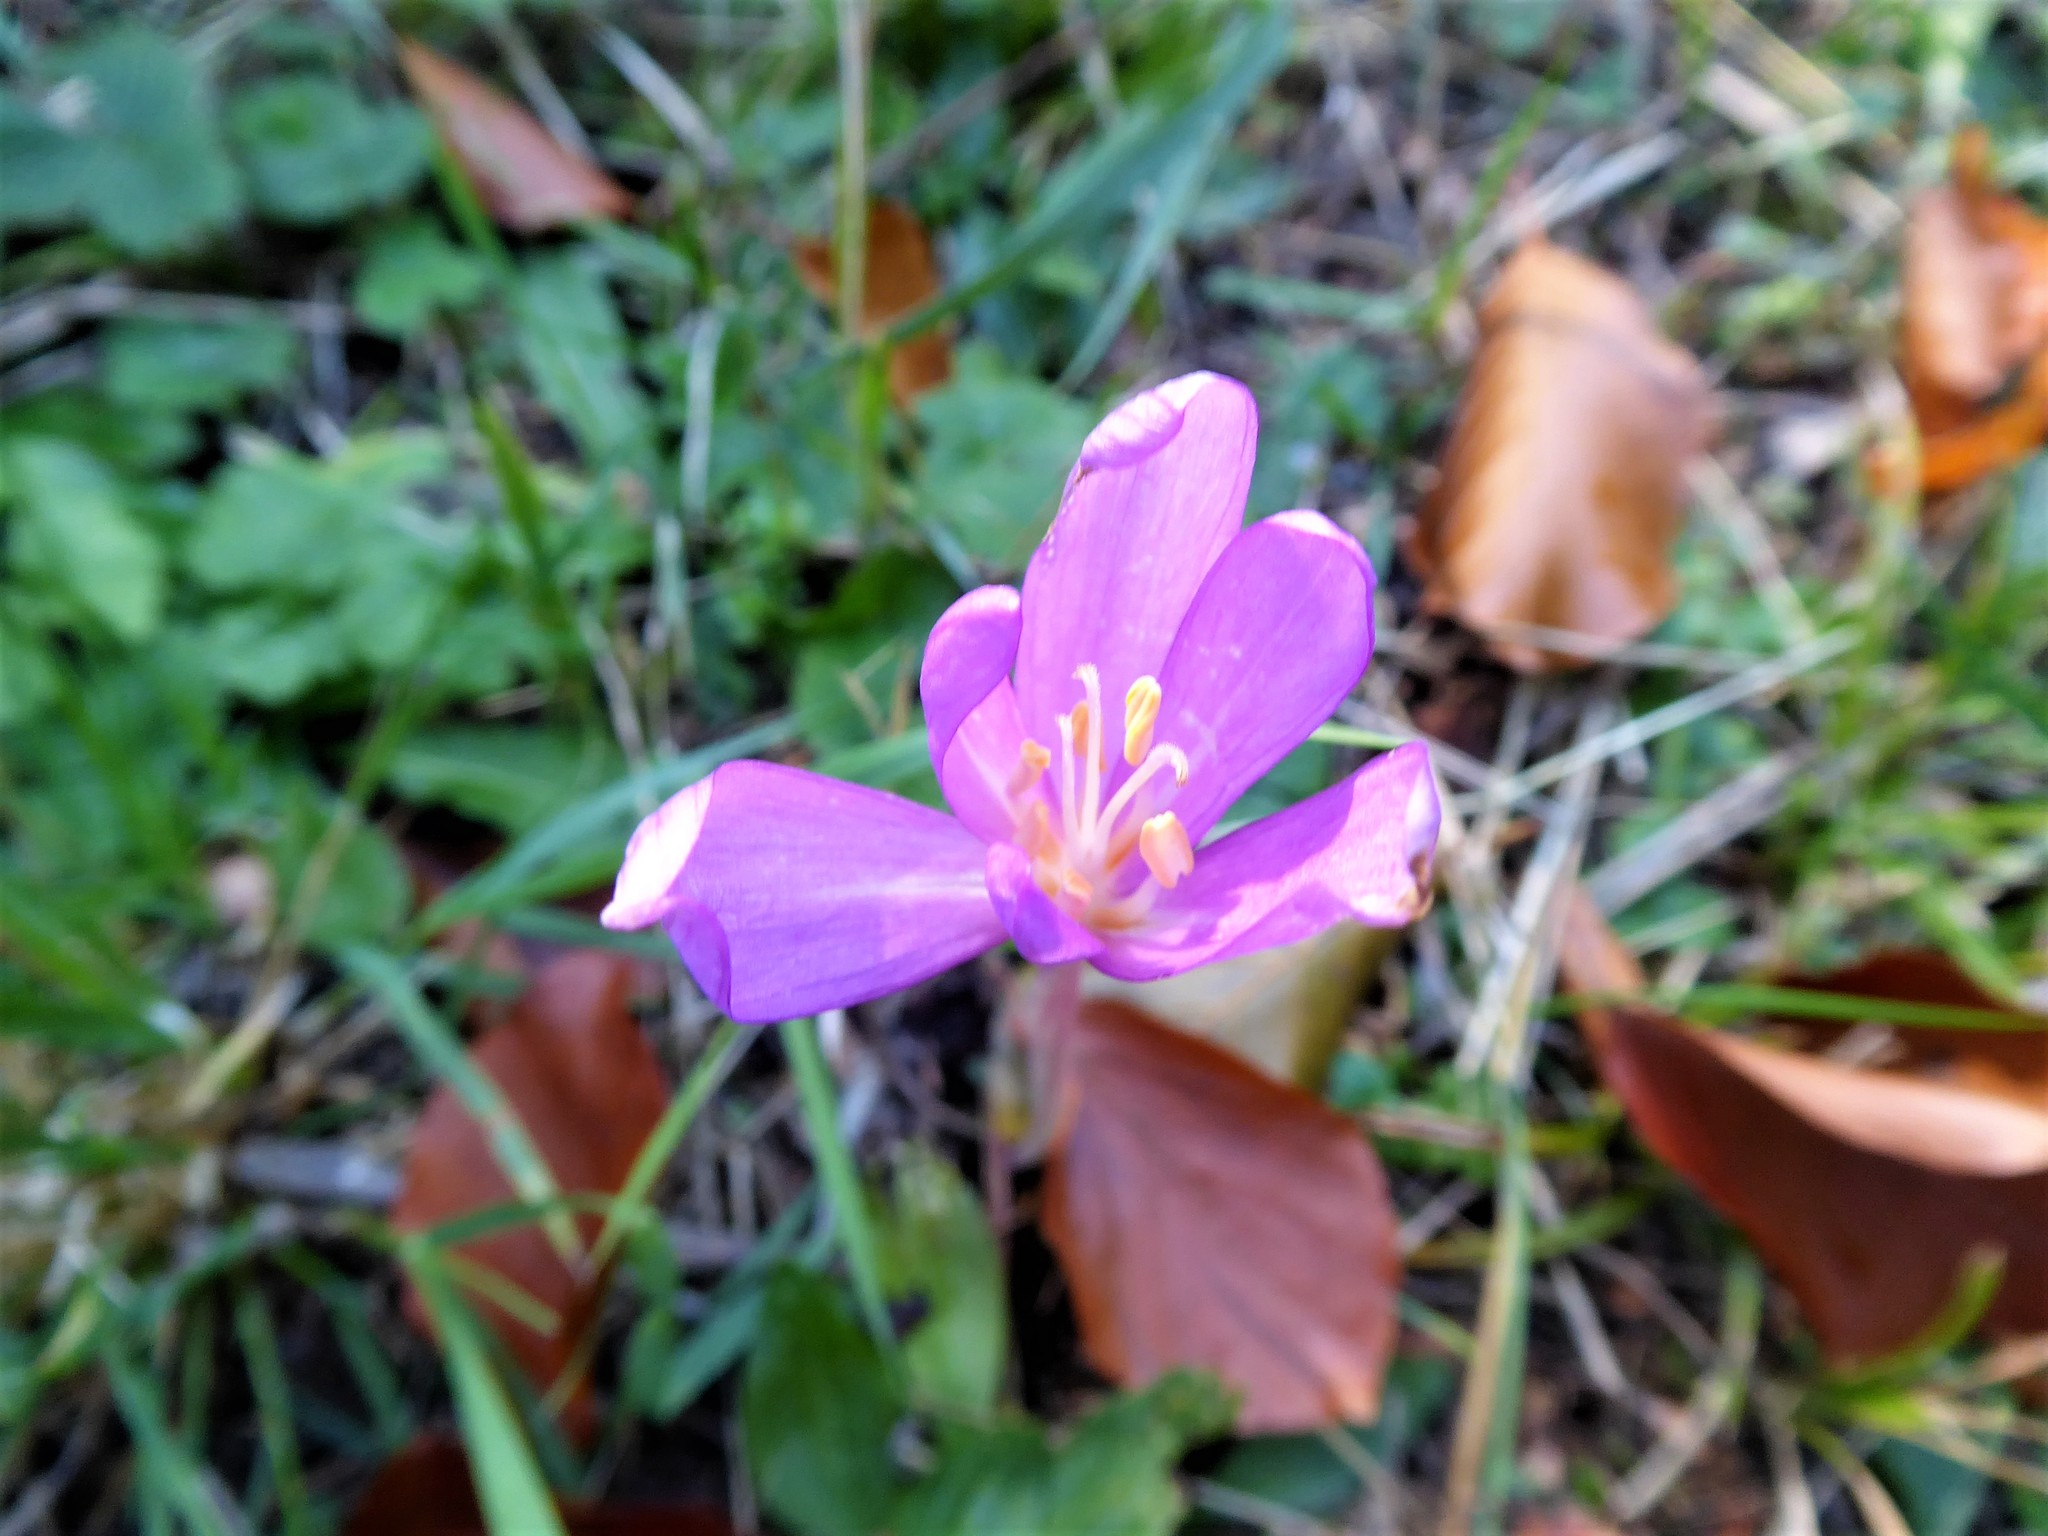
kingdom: Plantae
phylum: Tracheophyta
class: Liliopsida
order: Liliales
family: Colchicaceae
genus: Colchicum
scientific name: Colchicum autumnale
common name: Autumn crocus
